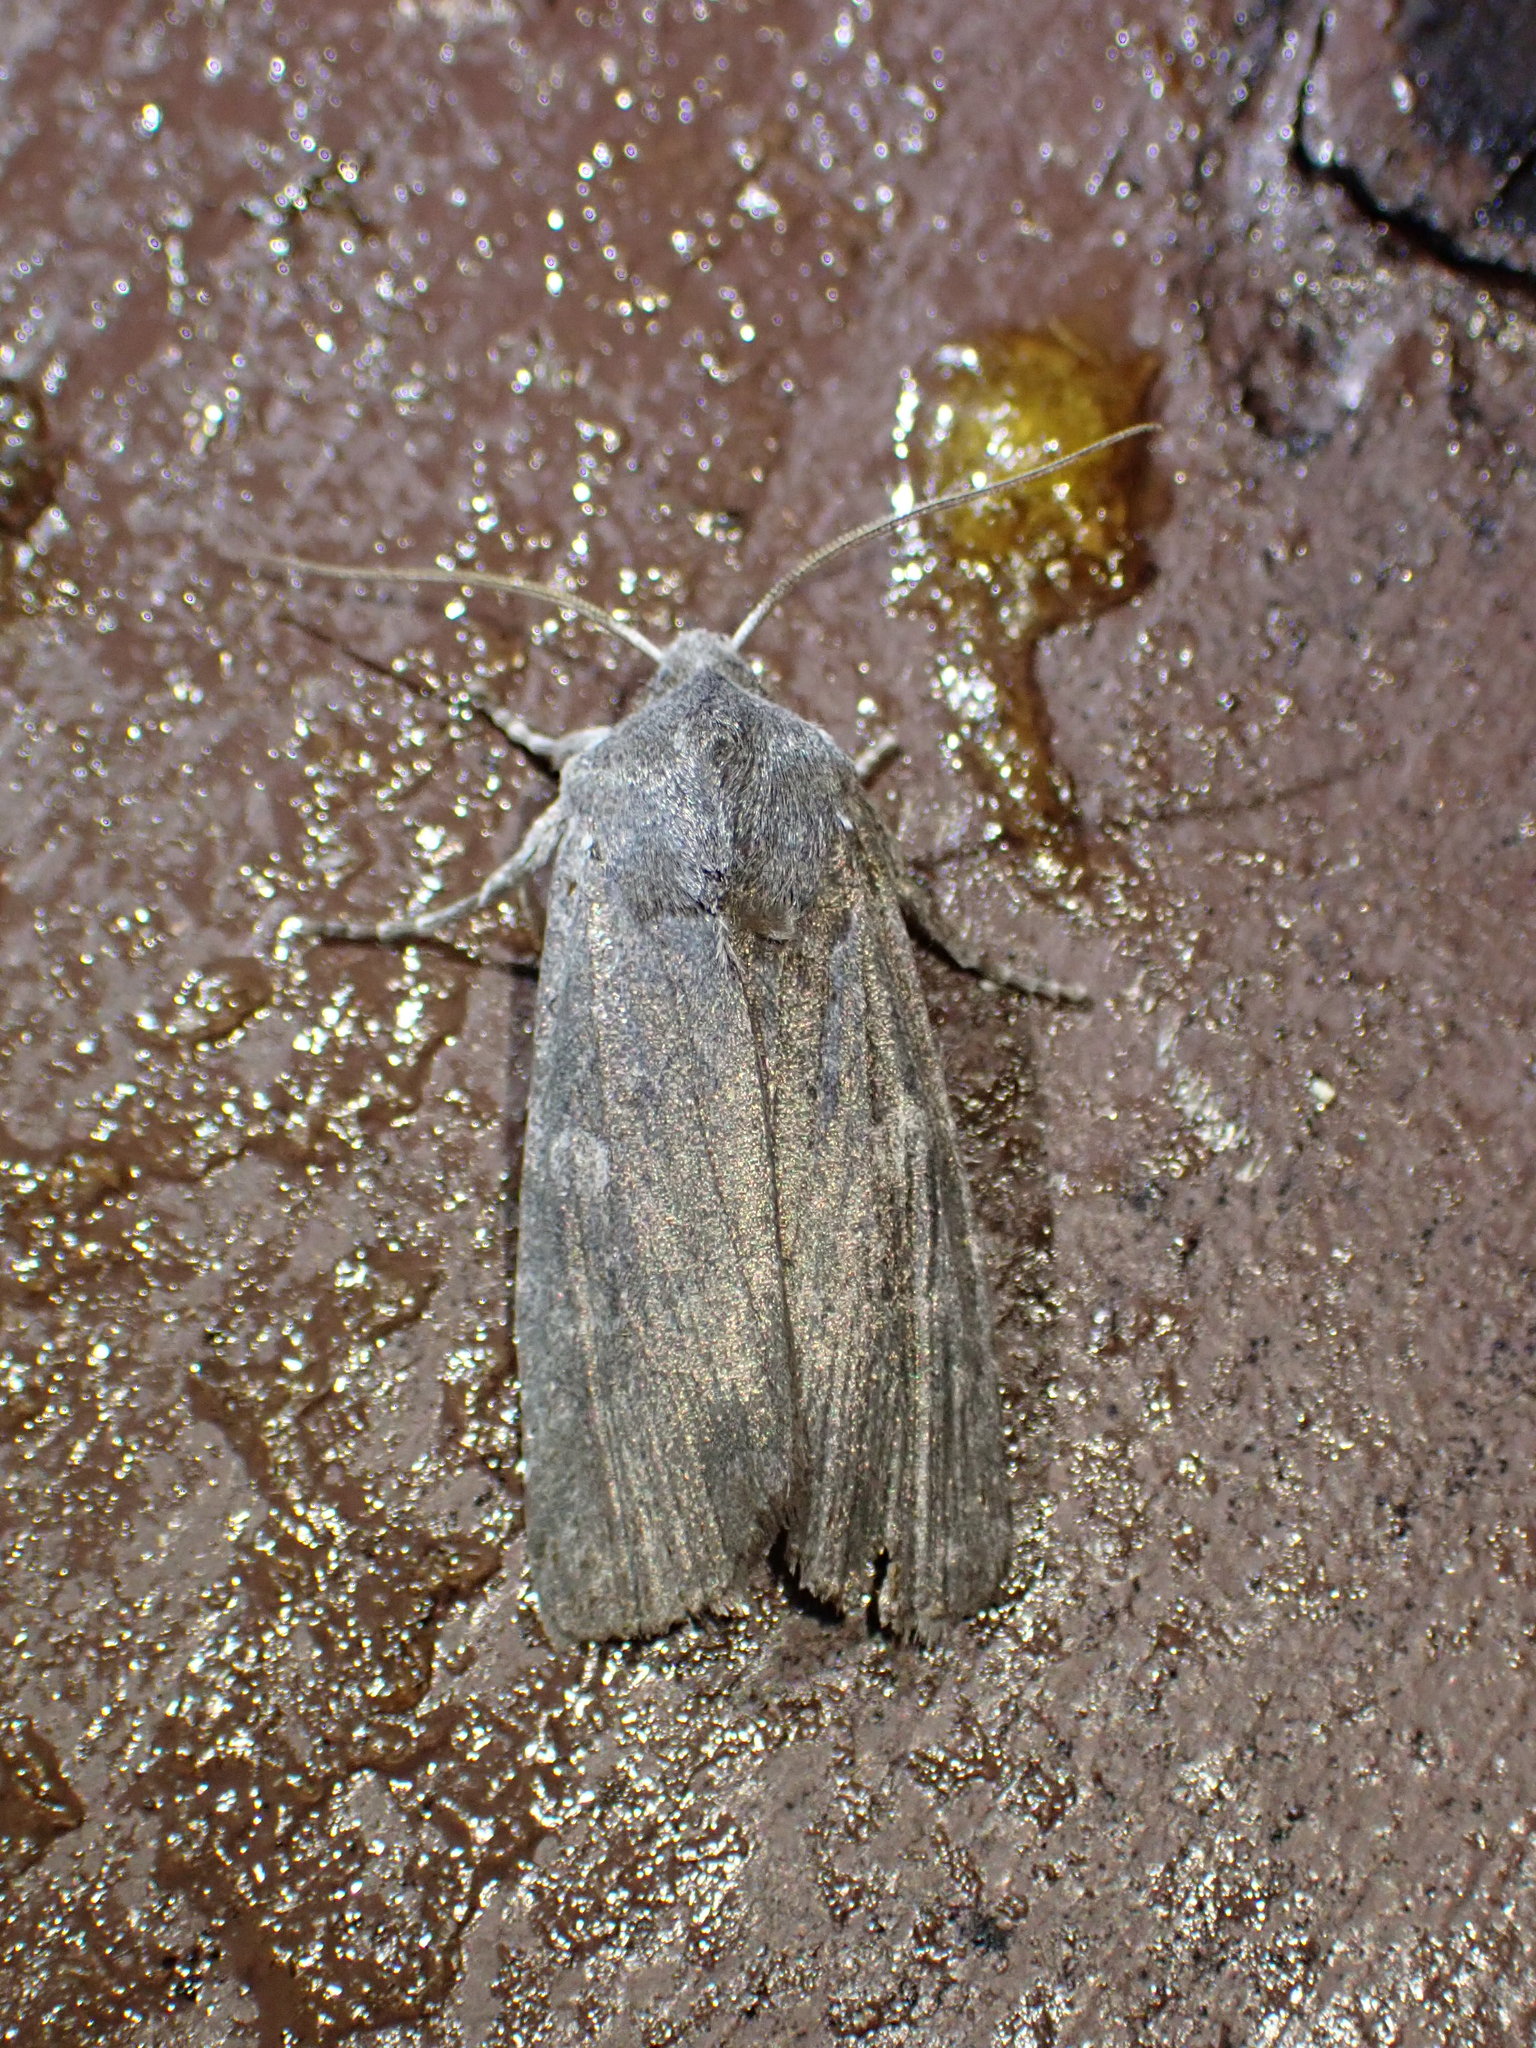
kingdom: Animalia
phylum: Arthropoda
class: Insecta
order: Lepidoptera
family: Noctuidae
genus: Lithophane
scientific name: Lithophane unimoda
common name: Dowdy pinion
